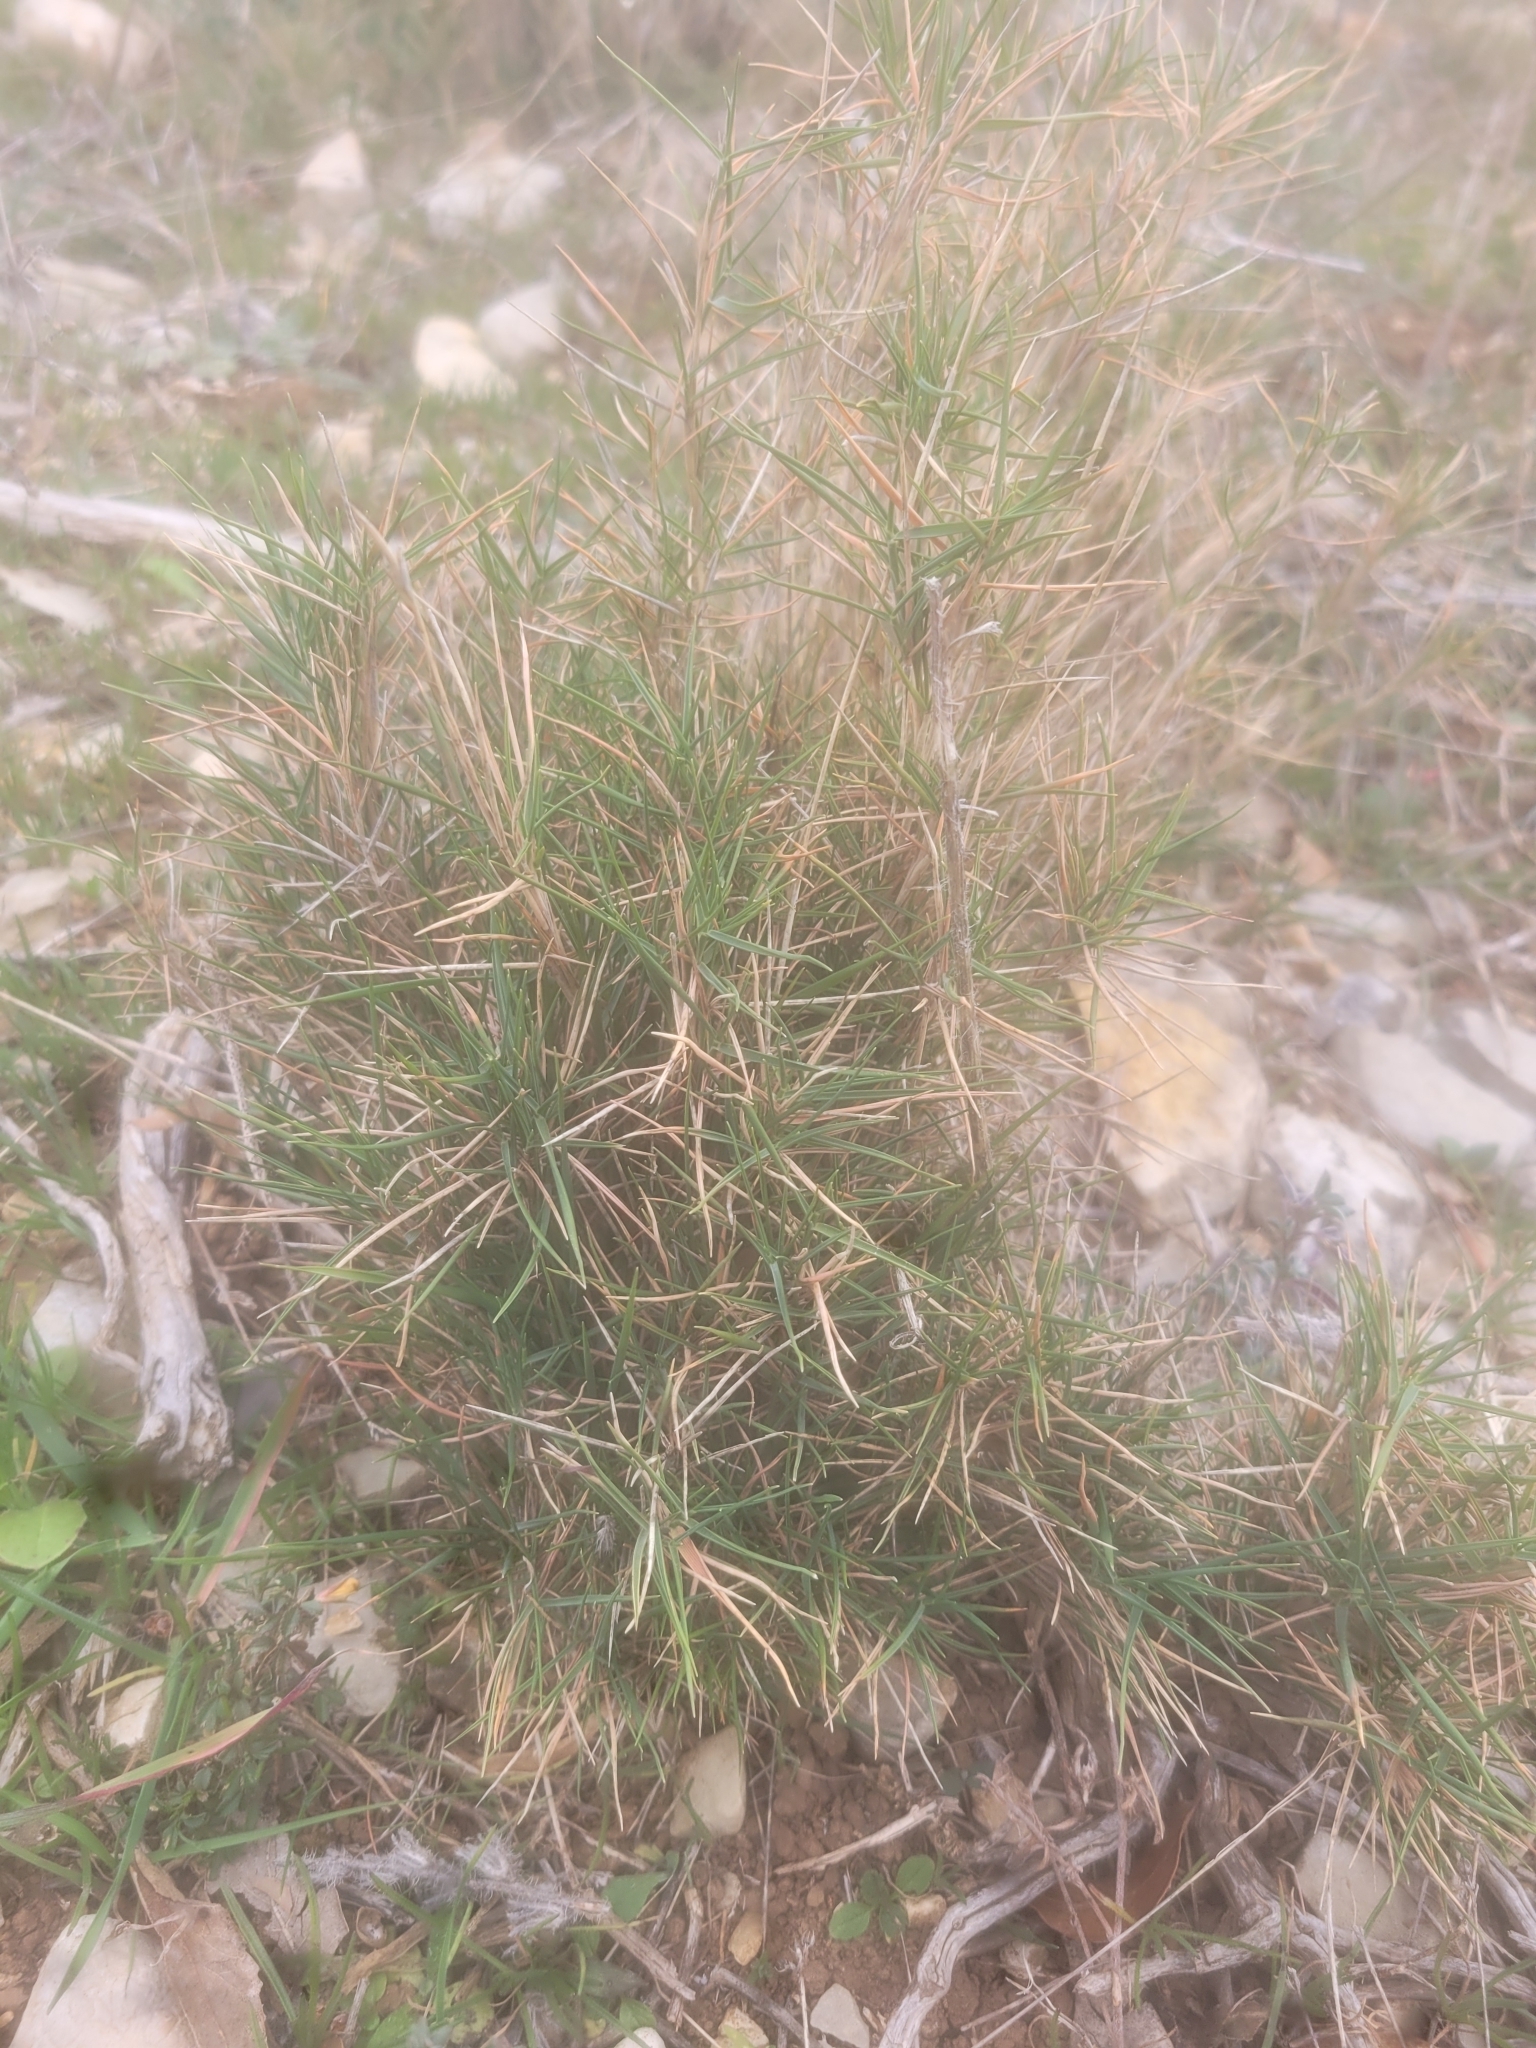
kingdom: Plantae
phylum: Tracheophyta
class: Liliopsida
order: Poales
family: Poaceae
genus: Brachypodium
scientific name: Brachypodium retusum
